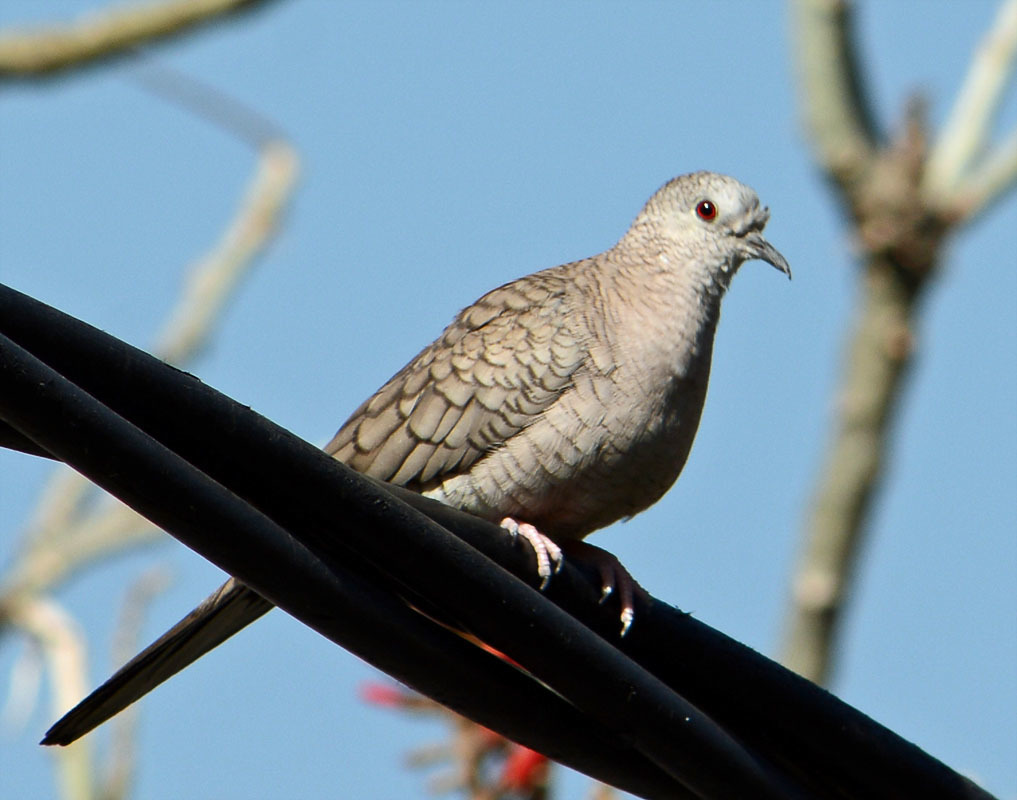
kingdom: Animalia
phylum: Chordata
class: Aves
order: Columbiformes
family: Columbidae
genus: Columbina
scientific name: Columbina inca
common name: Inca dove
